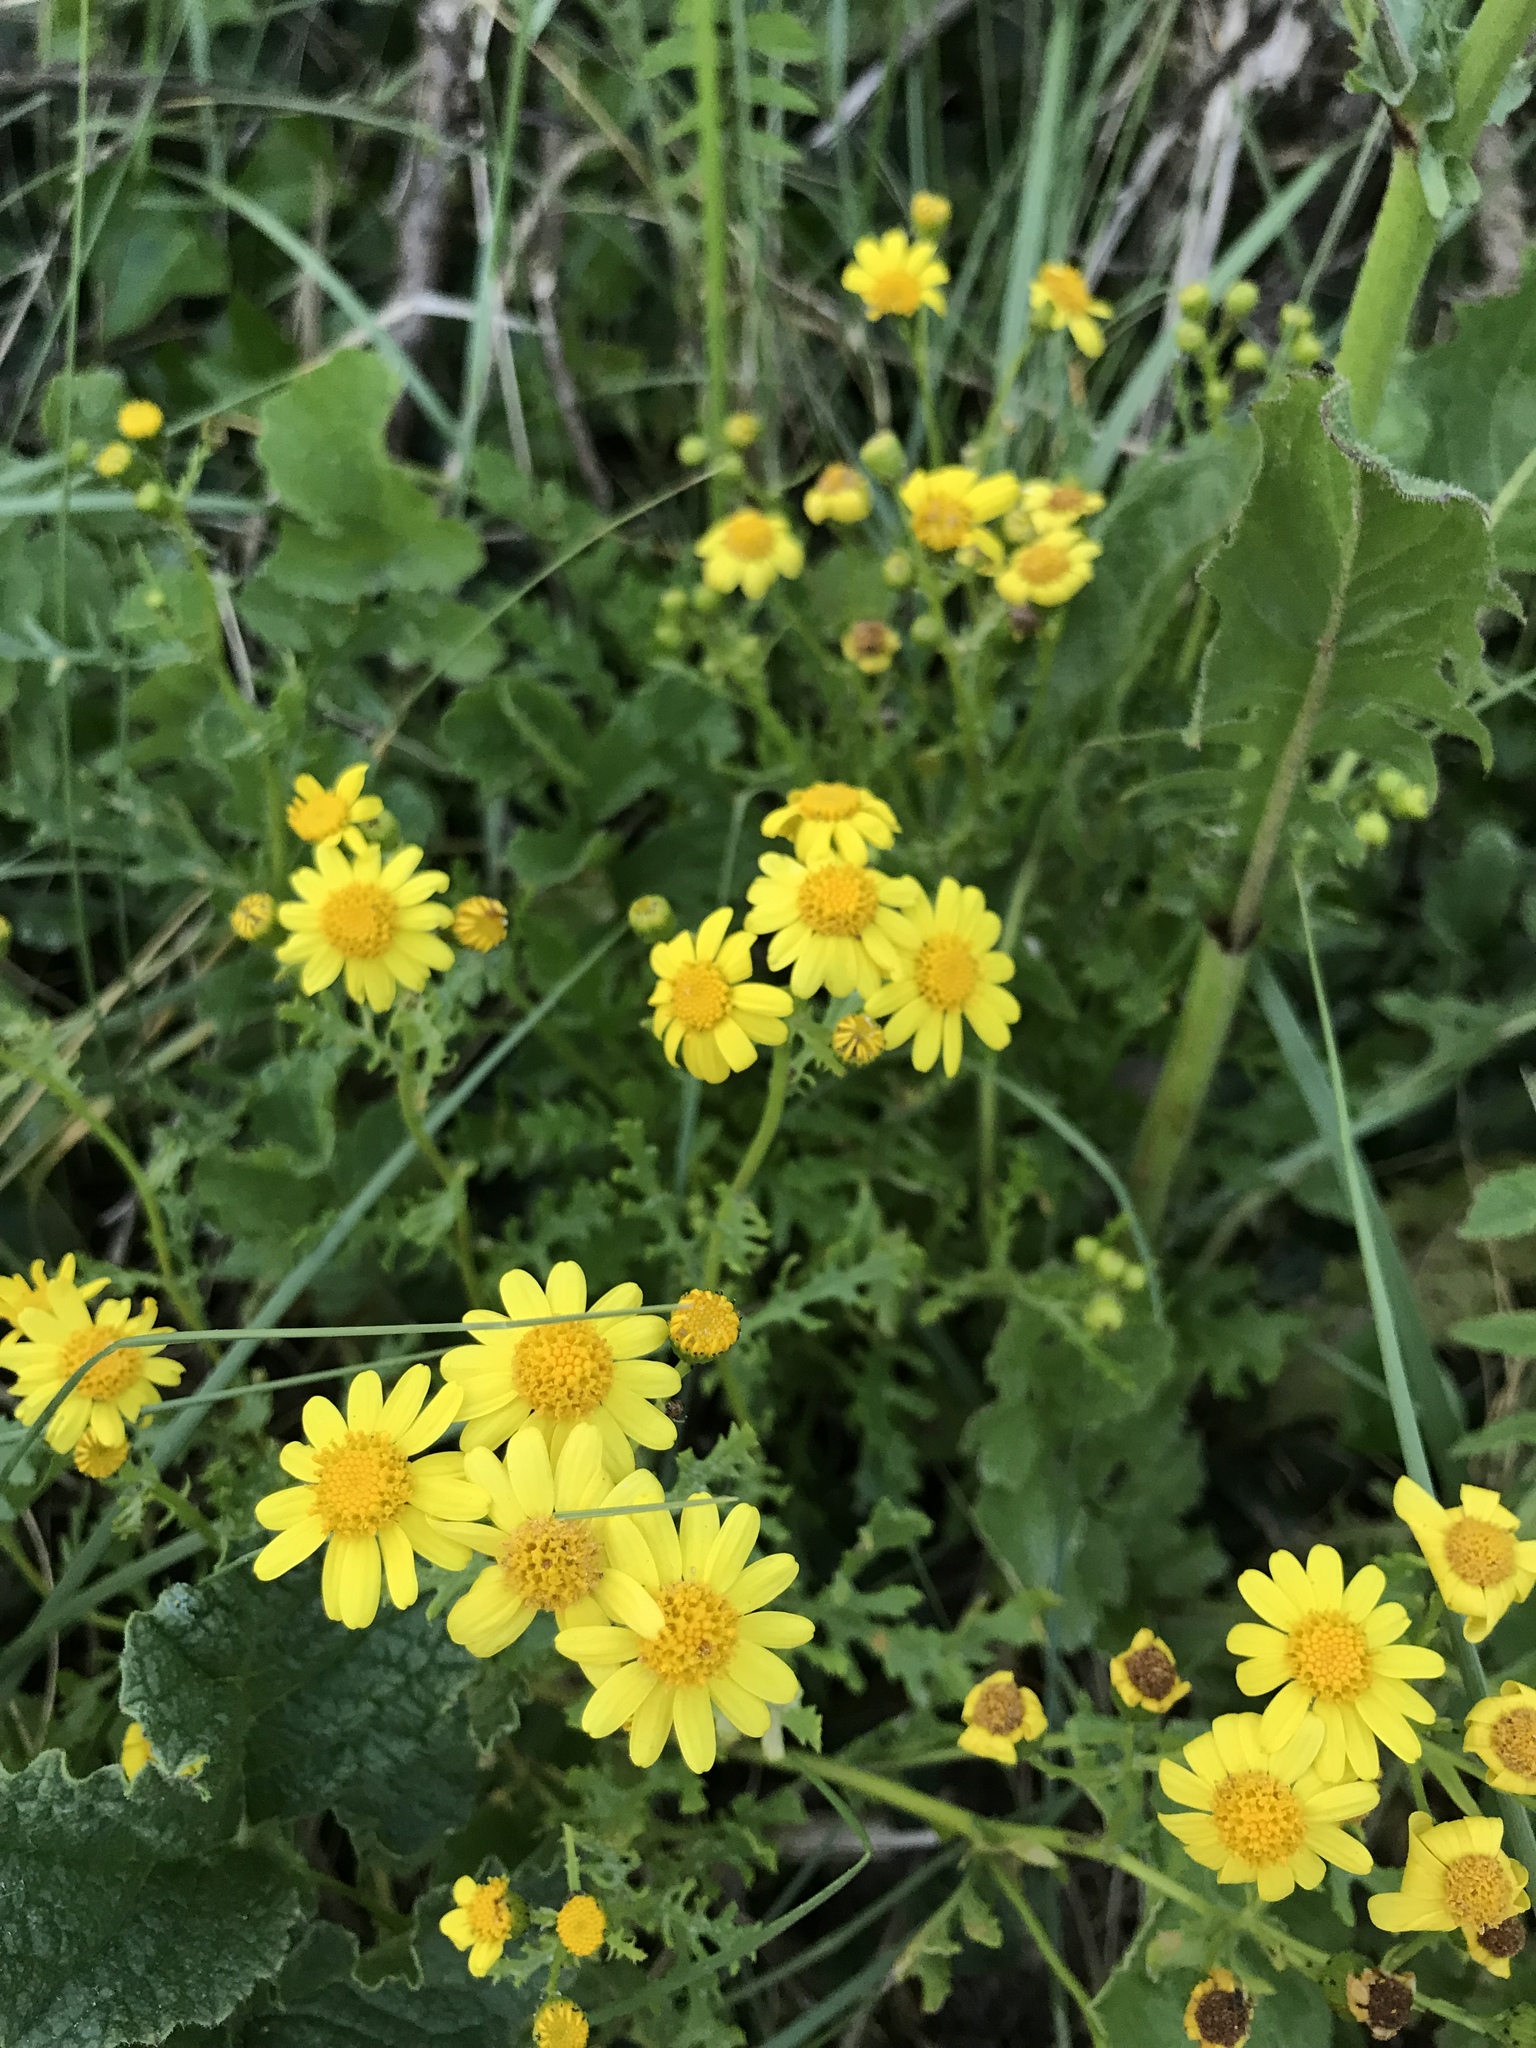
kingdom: Plantae
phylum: Tracheophyta
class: Magnoliopsida
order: Asterales
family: Asteraceae
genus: Senecio
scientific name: Senecio squalidus
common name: Oxford ragwort
